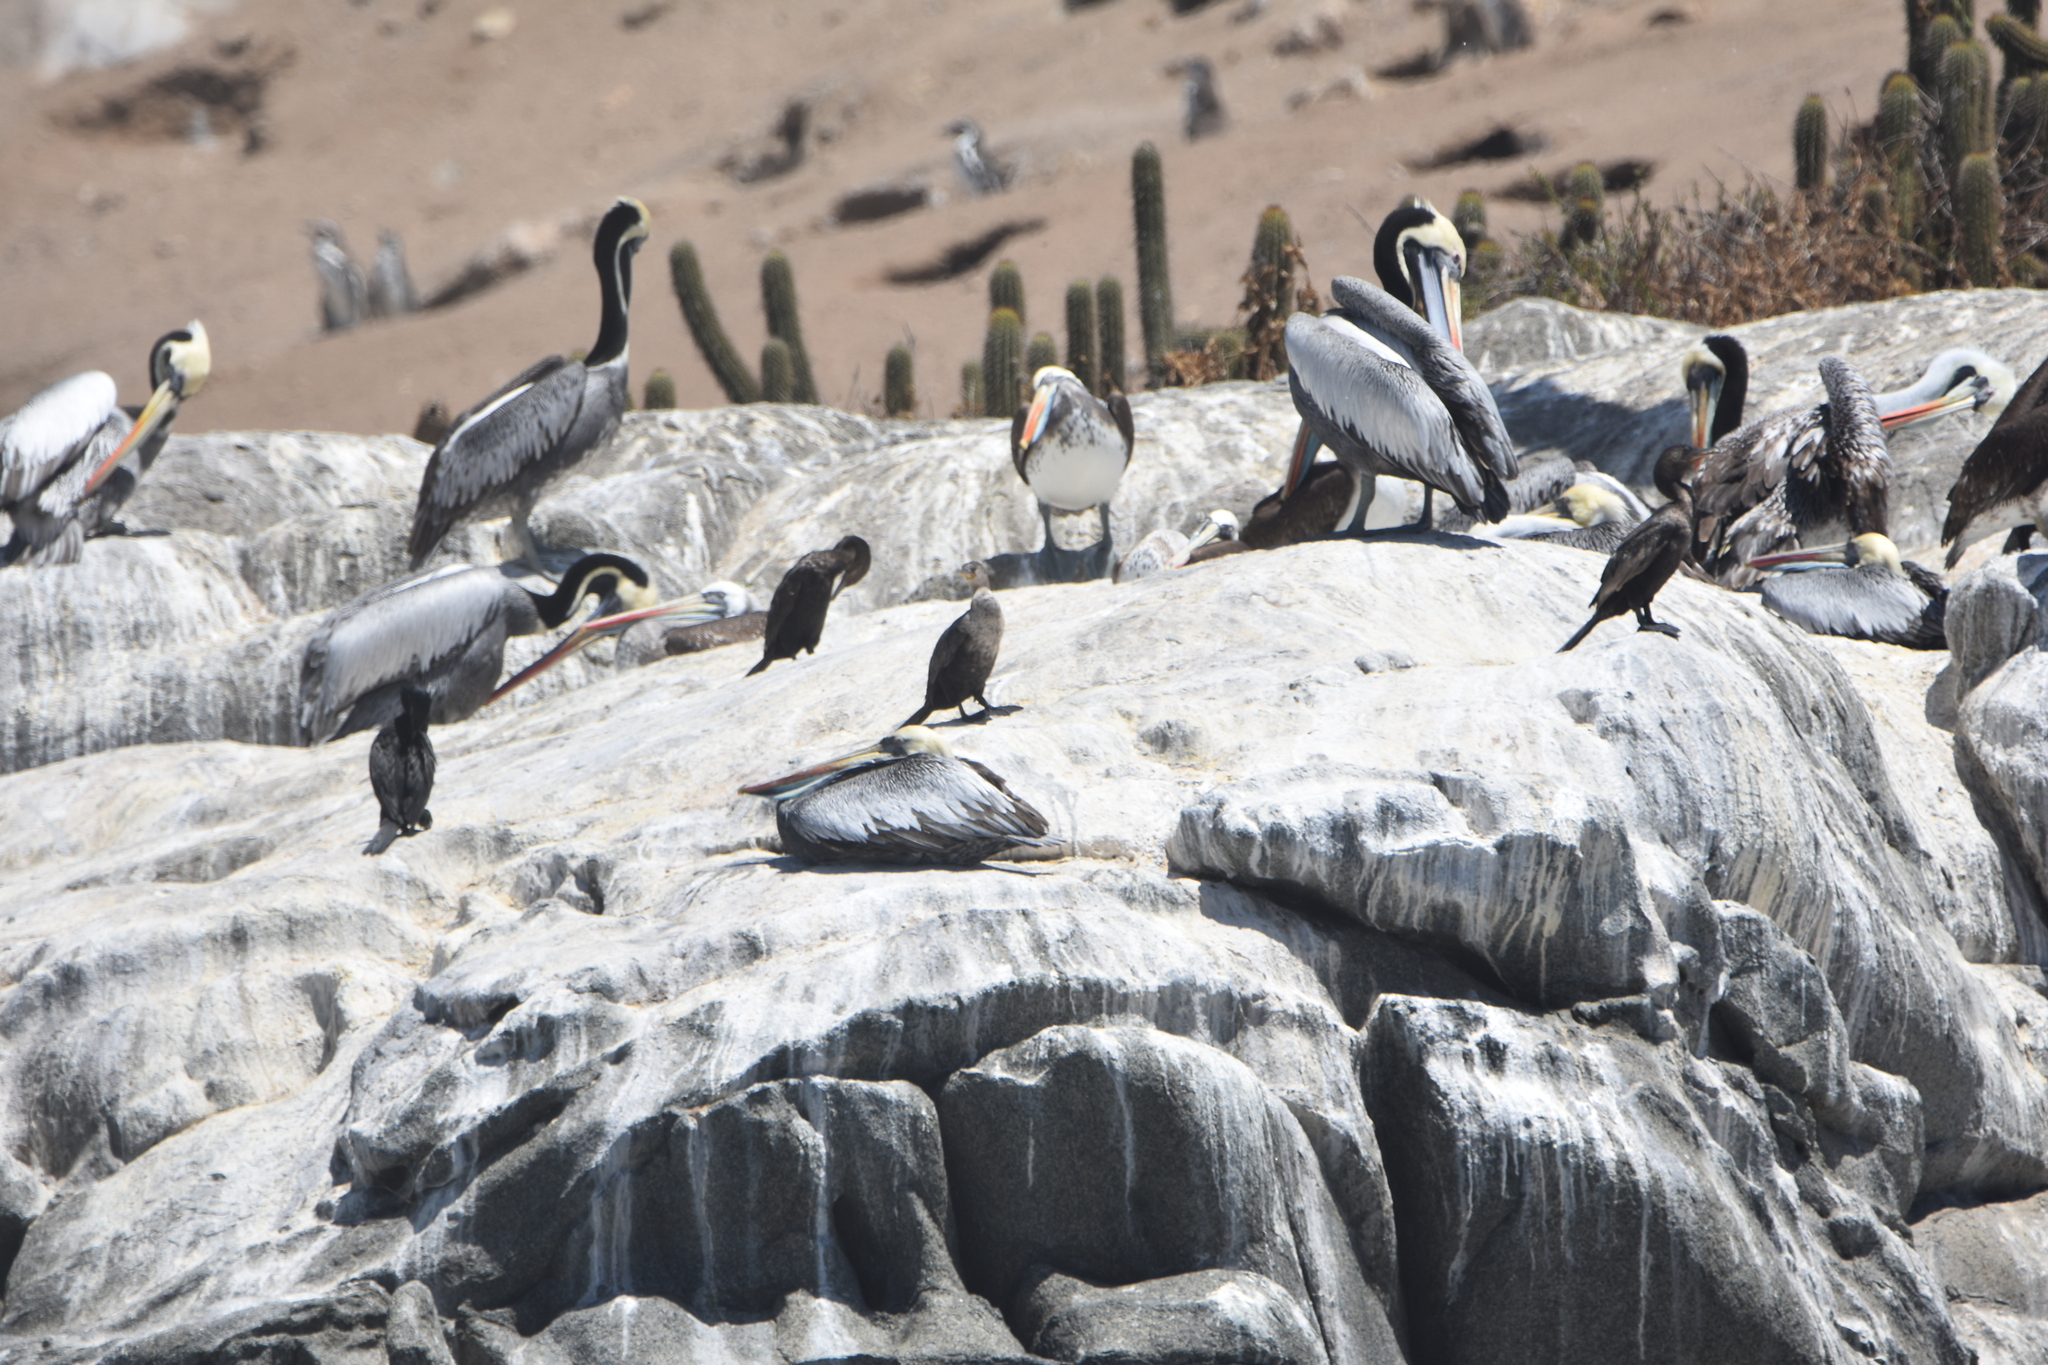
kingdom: Animalia
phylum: Chordata
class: Aves
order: Suliformes
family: Phalacrocoracidae
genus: Phalacrocorax
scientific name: Phalacrocorax brasilianus
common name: Neotropic cormorant
